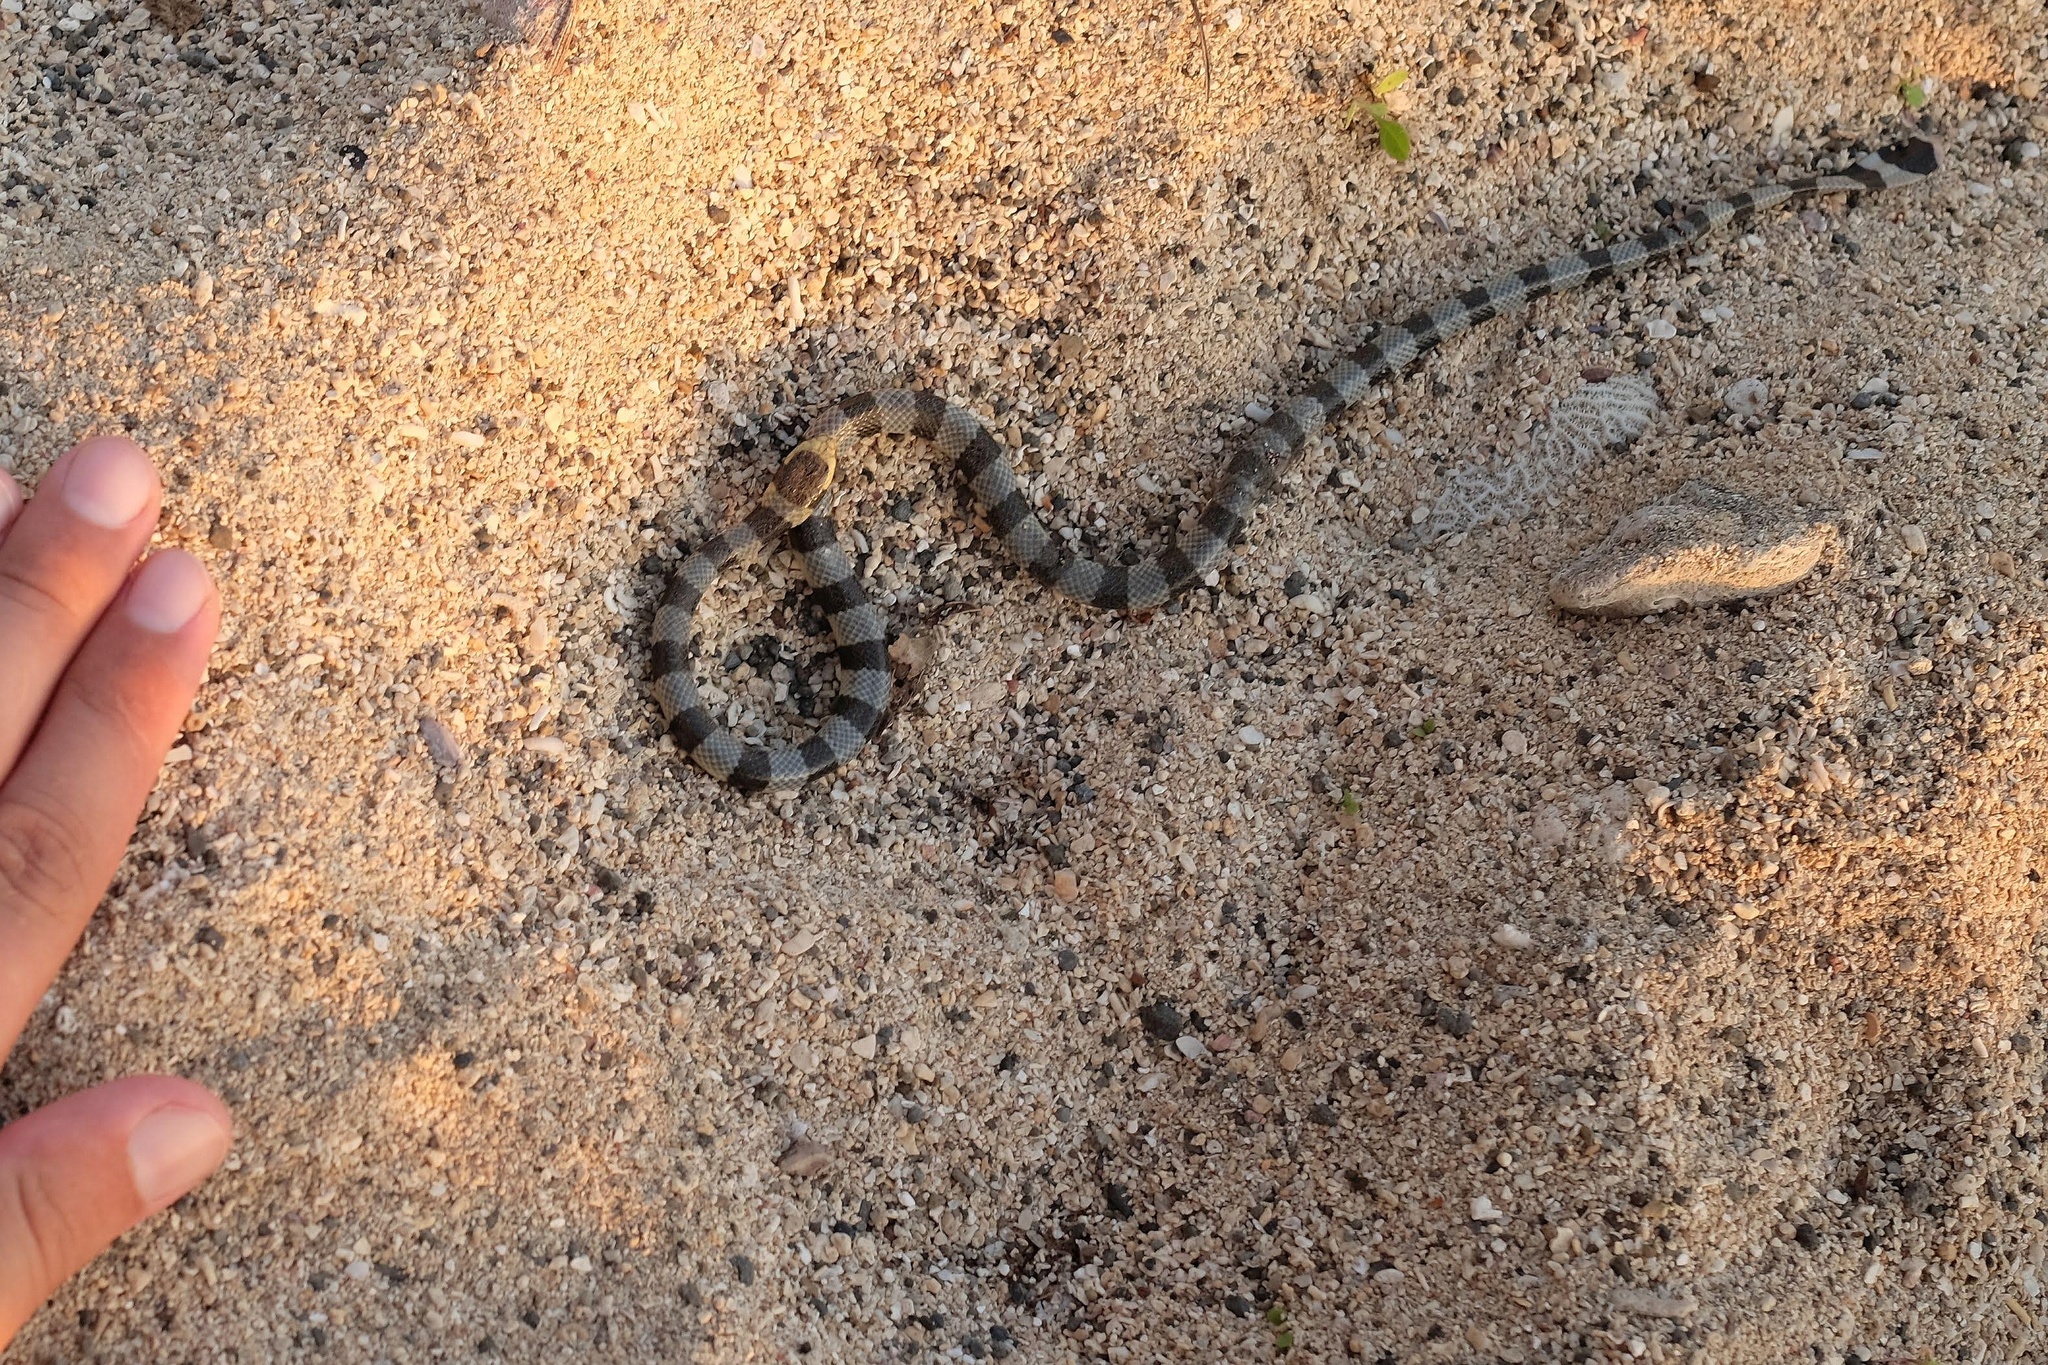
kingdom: Animalia
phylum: Chordata
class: Squamata
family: Elapidae
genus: Laticauda
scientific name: Laticauda colubrina
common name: Yellow-lipped sea krait
